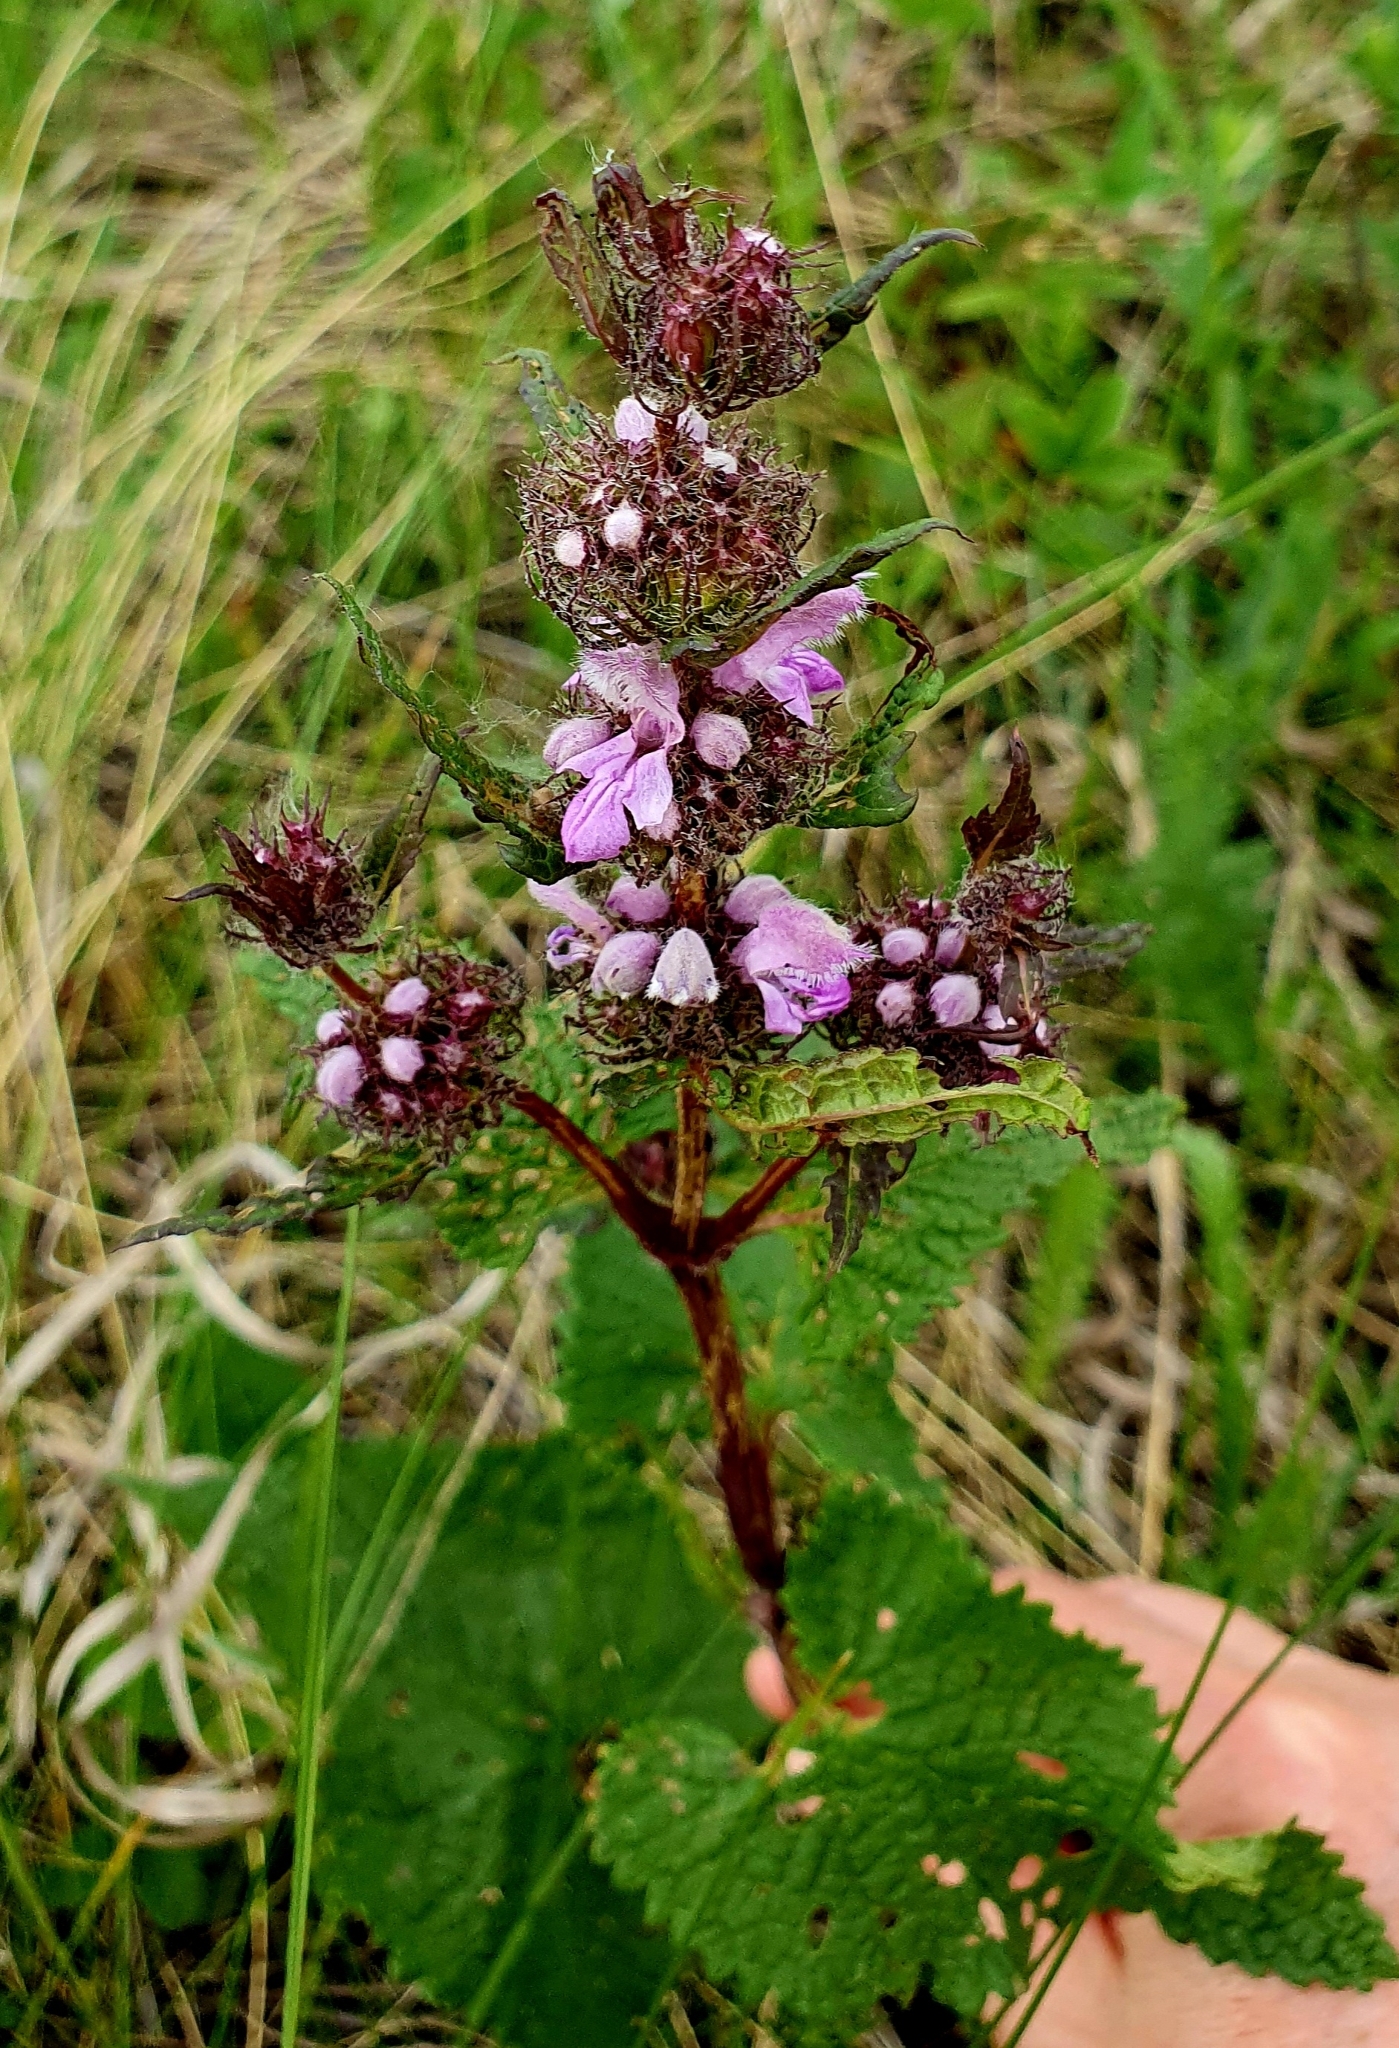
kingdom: Plantae
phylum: Tracheophyta
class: Magnoliopsida
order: Lamiales
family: Lamiaceae
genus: Phlomoides
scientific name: Phlomoides tuberosa
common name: Tuberous jerusalem sage
